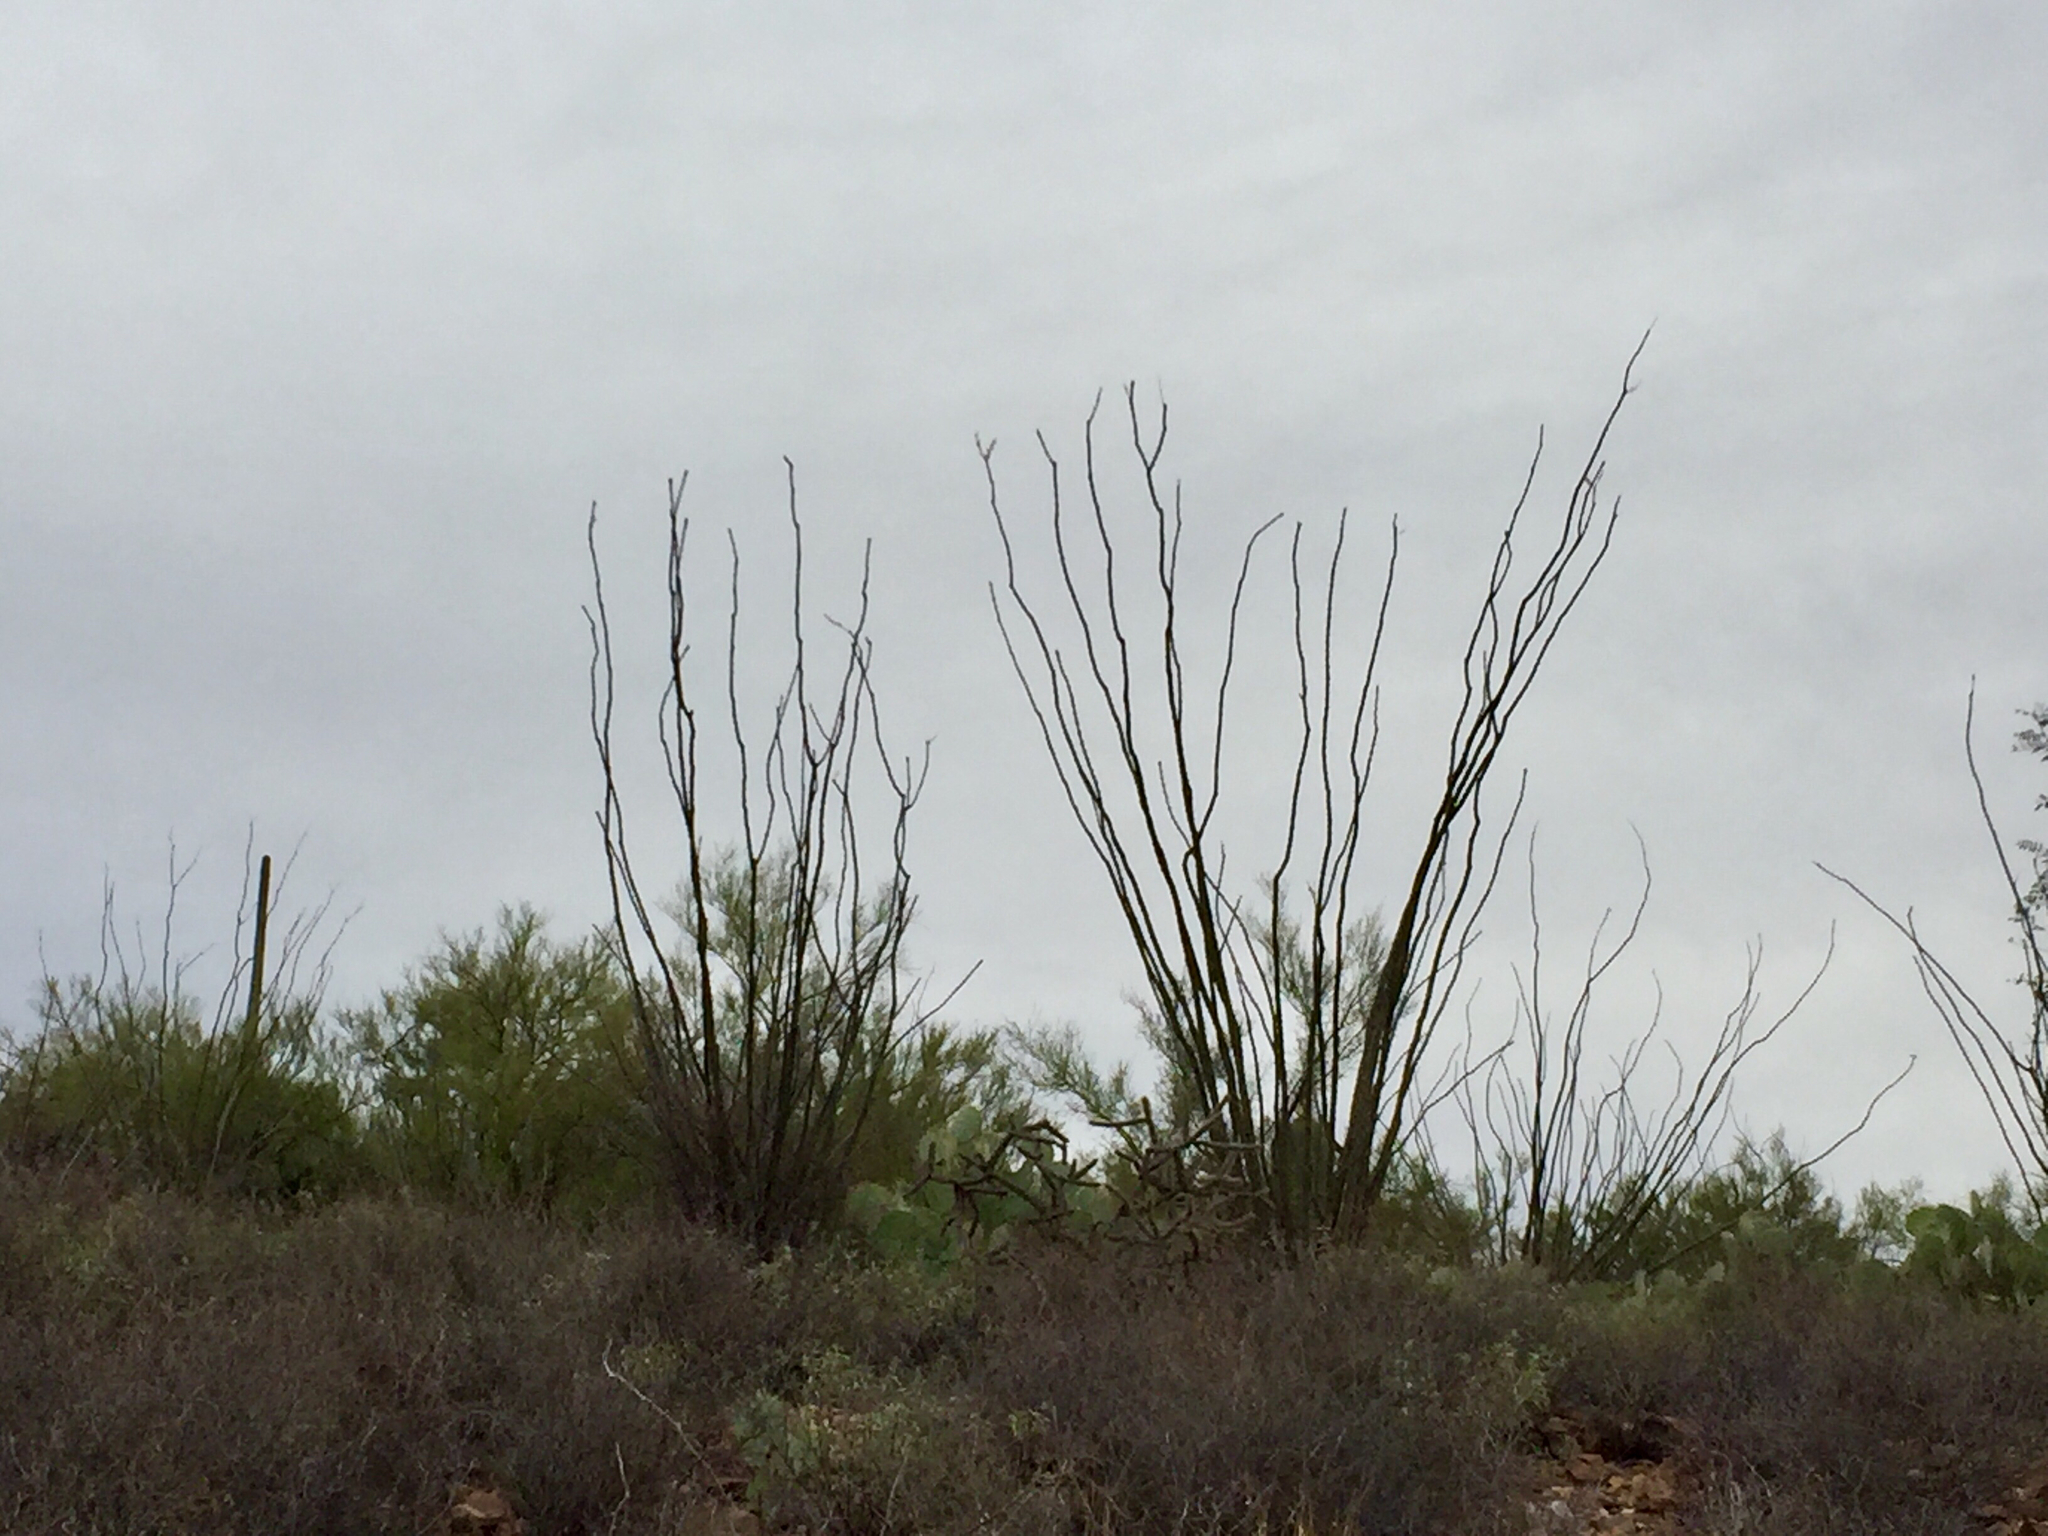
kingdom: Plantae
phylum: Tracheophyta
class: Magnoliopsida
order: Ericales
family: Fouquieriaceae
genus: Fouquieria
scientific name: Fouquieria splendens
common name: Vine-cactus
